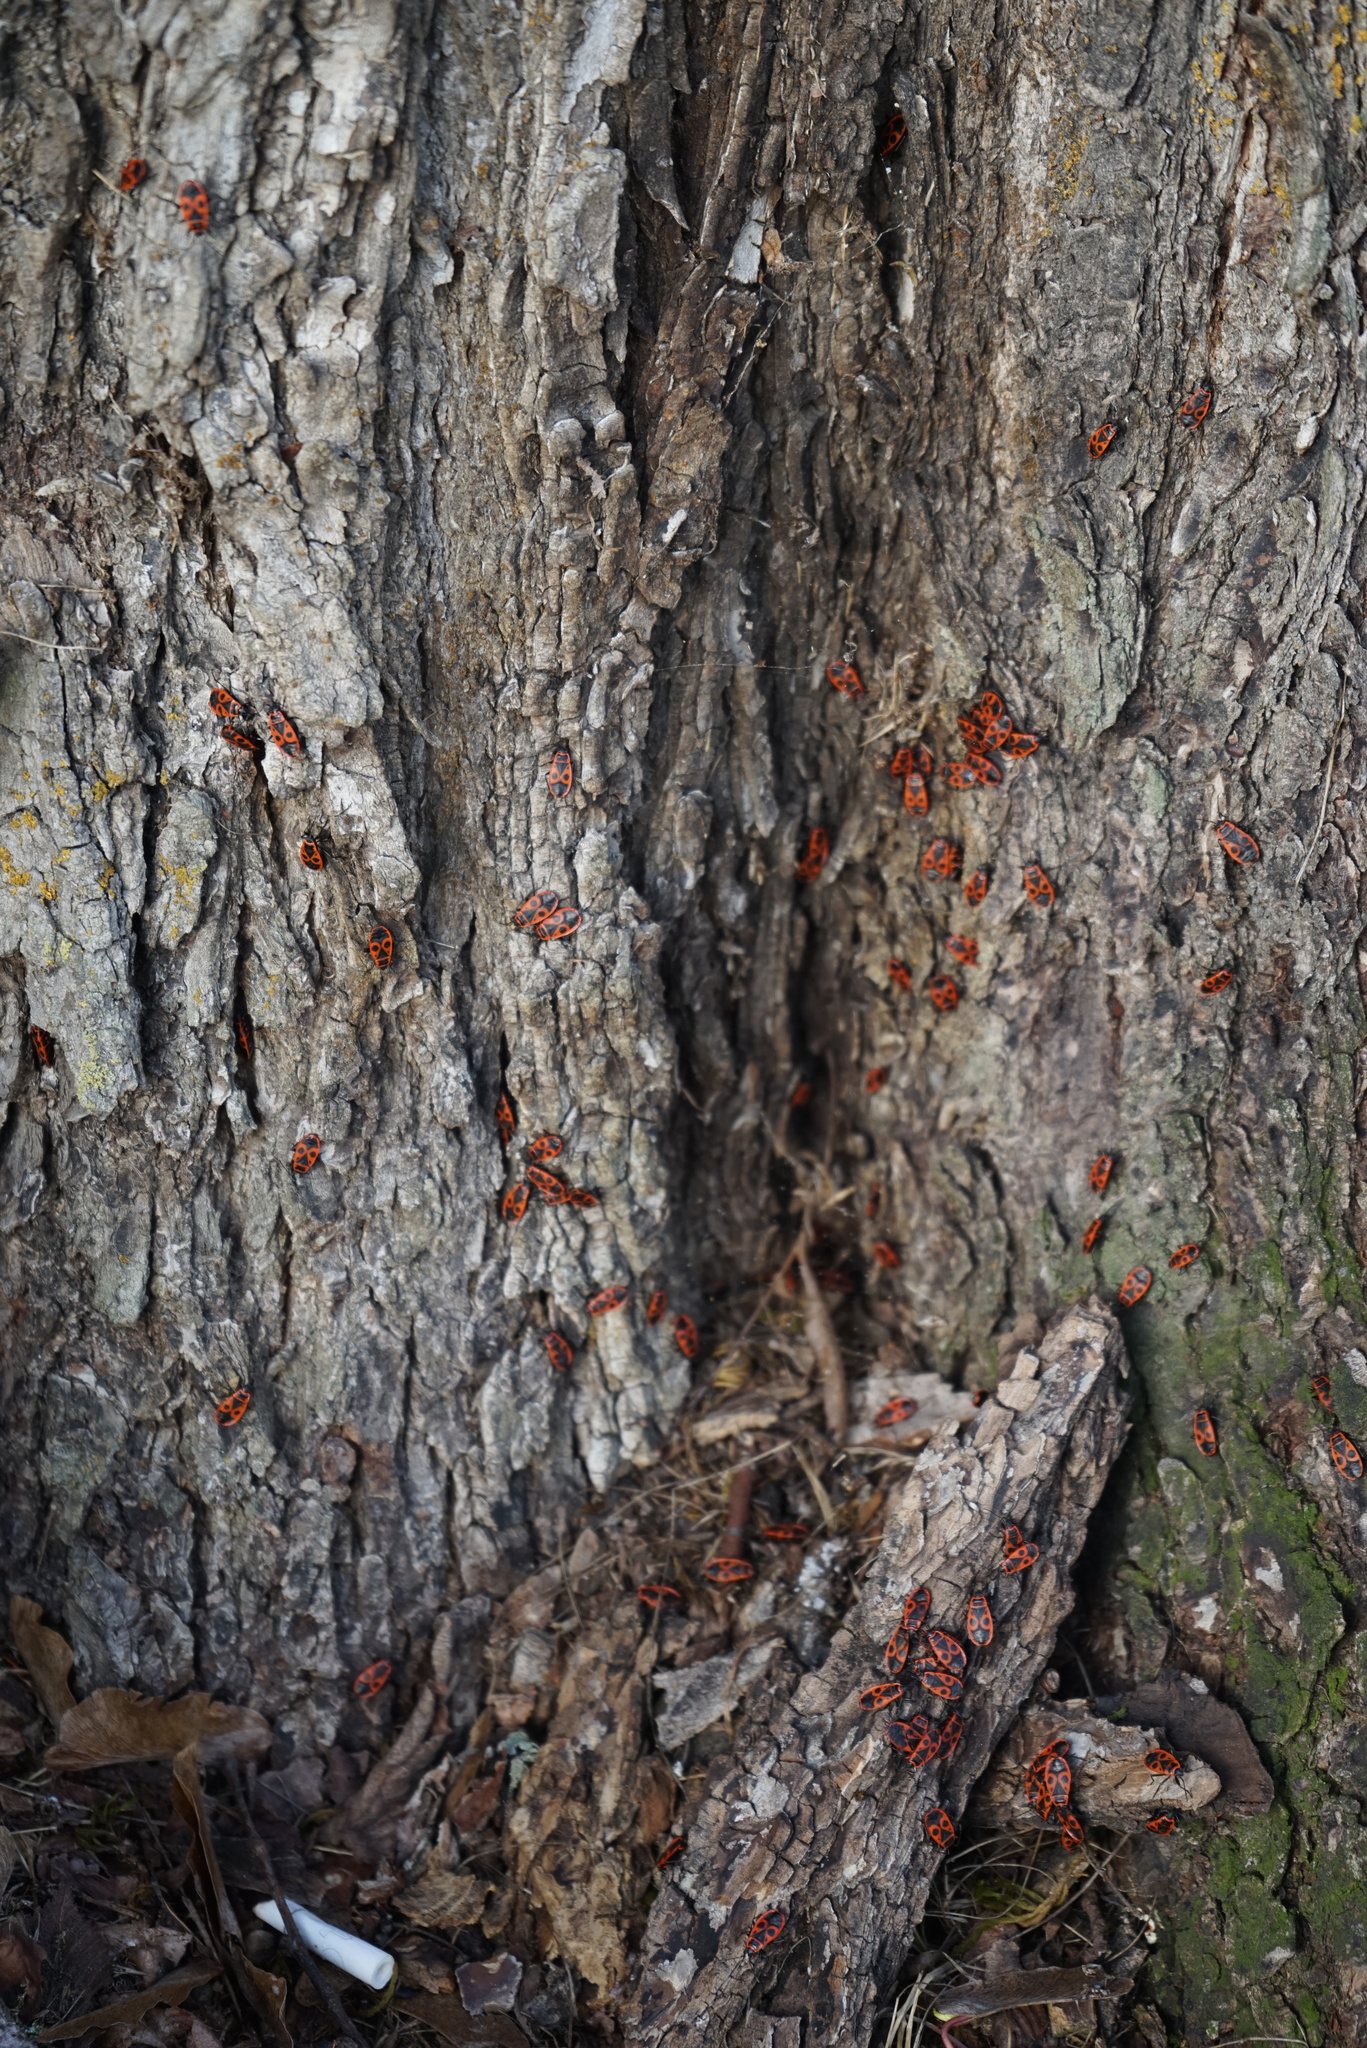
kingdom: Animalia
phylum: Arthropoda
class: Insecta
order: Hemiptera
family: Pyrrhocoridae
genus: Pyrrhocoris
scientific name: Pyrrhocoris apterus
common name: Firebug
